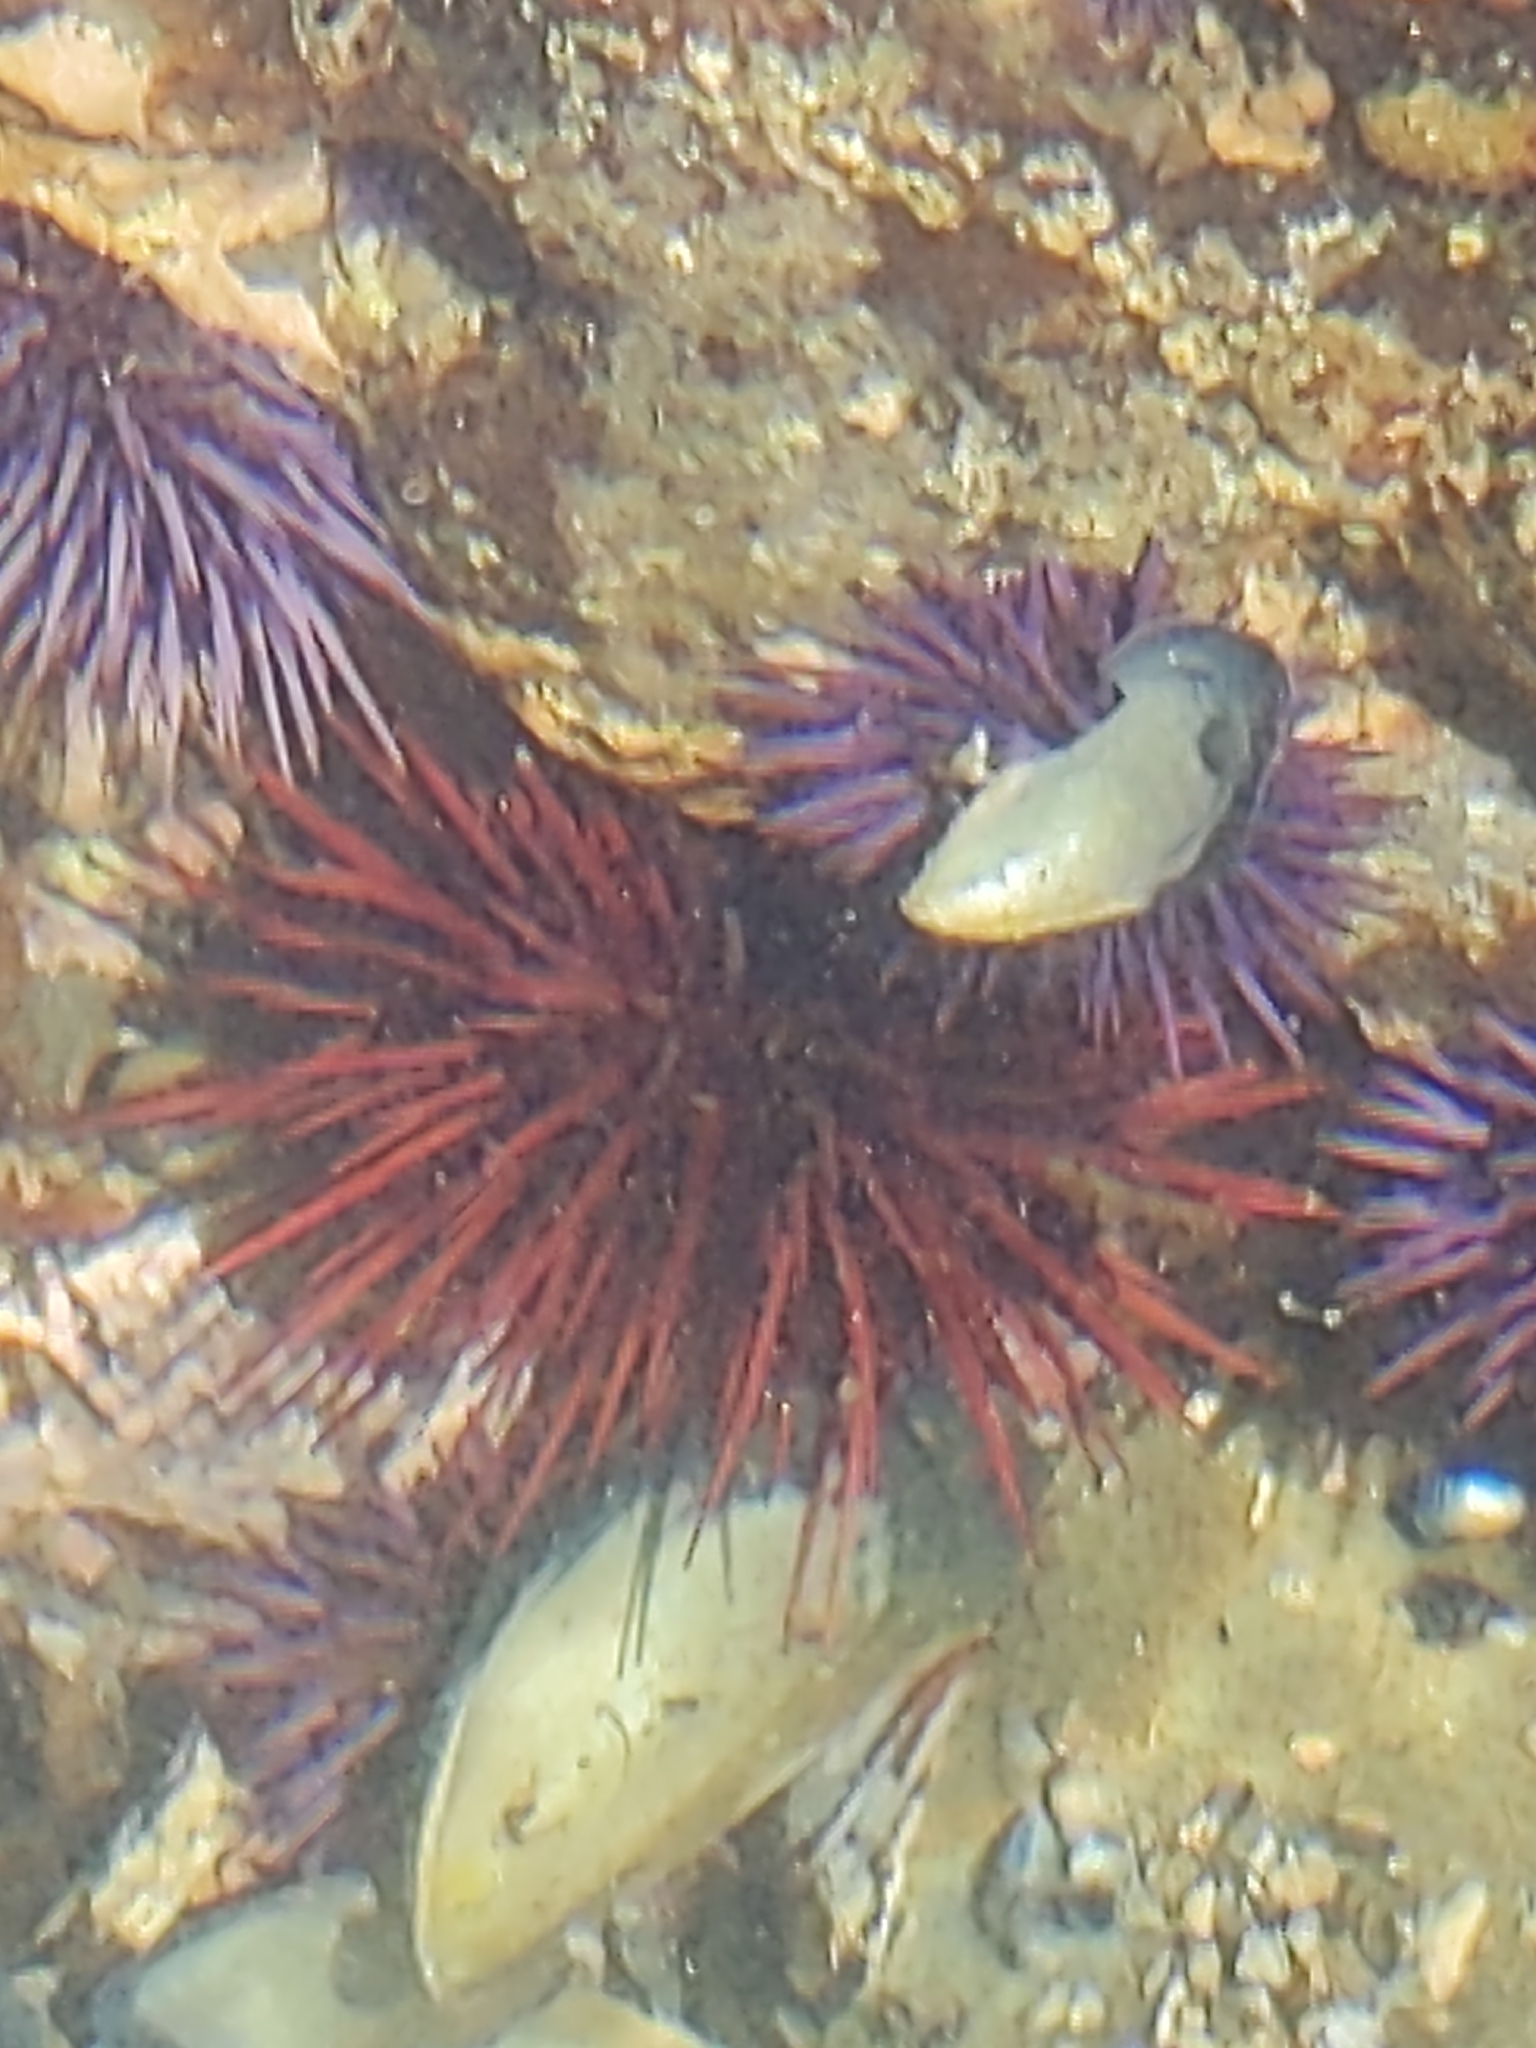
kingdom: Animalia
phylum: Echinodermata
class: Echinoidea
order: Camarodonta
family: Strongylocentrotidae
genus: Mesocentrotus
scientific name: Mesocentrotus franciscanus
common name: Red sea urchin
